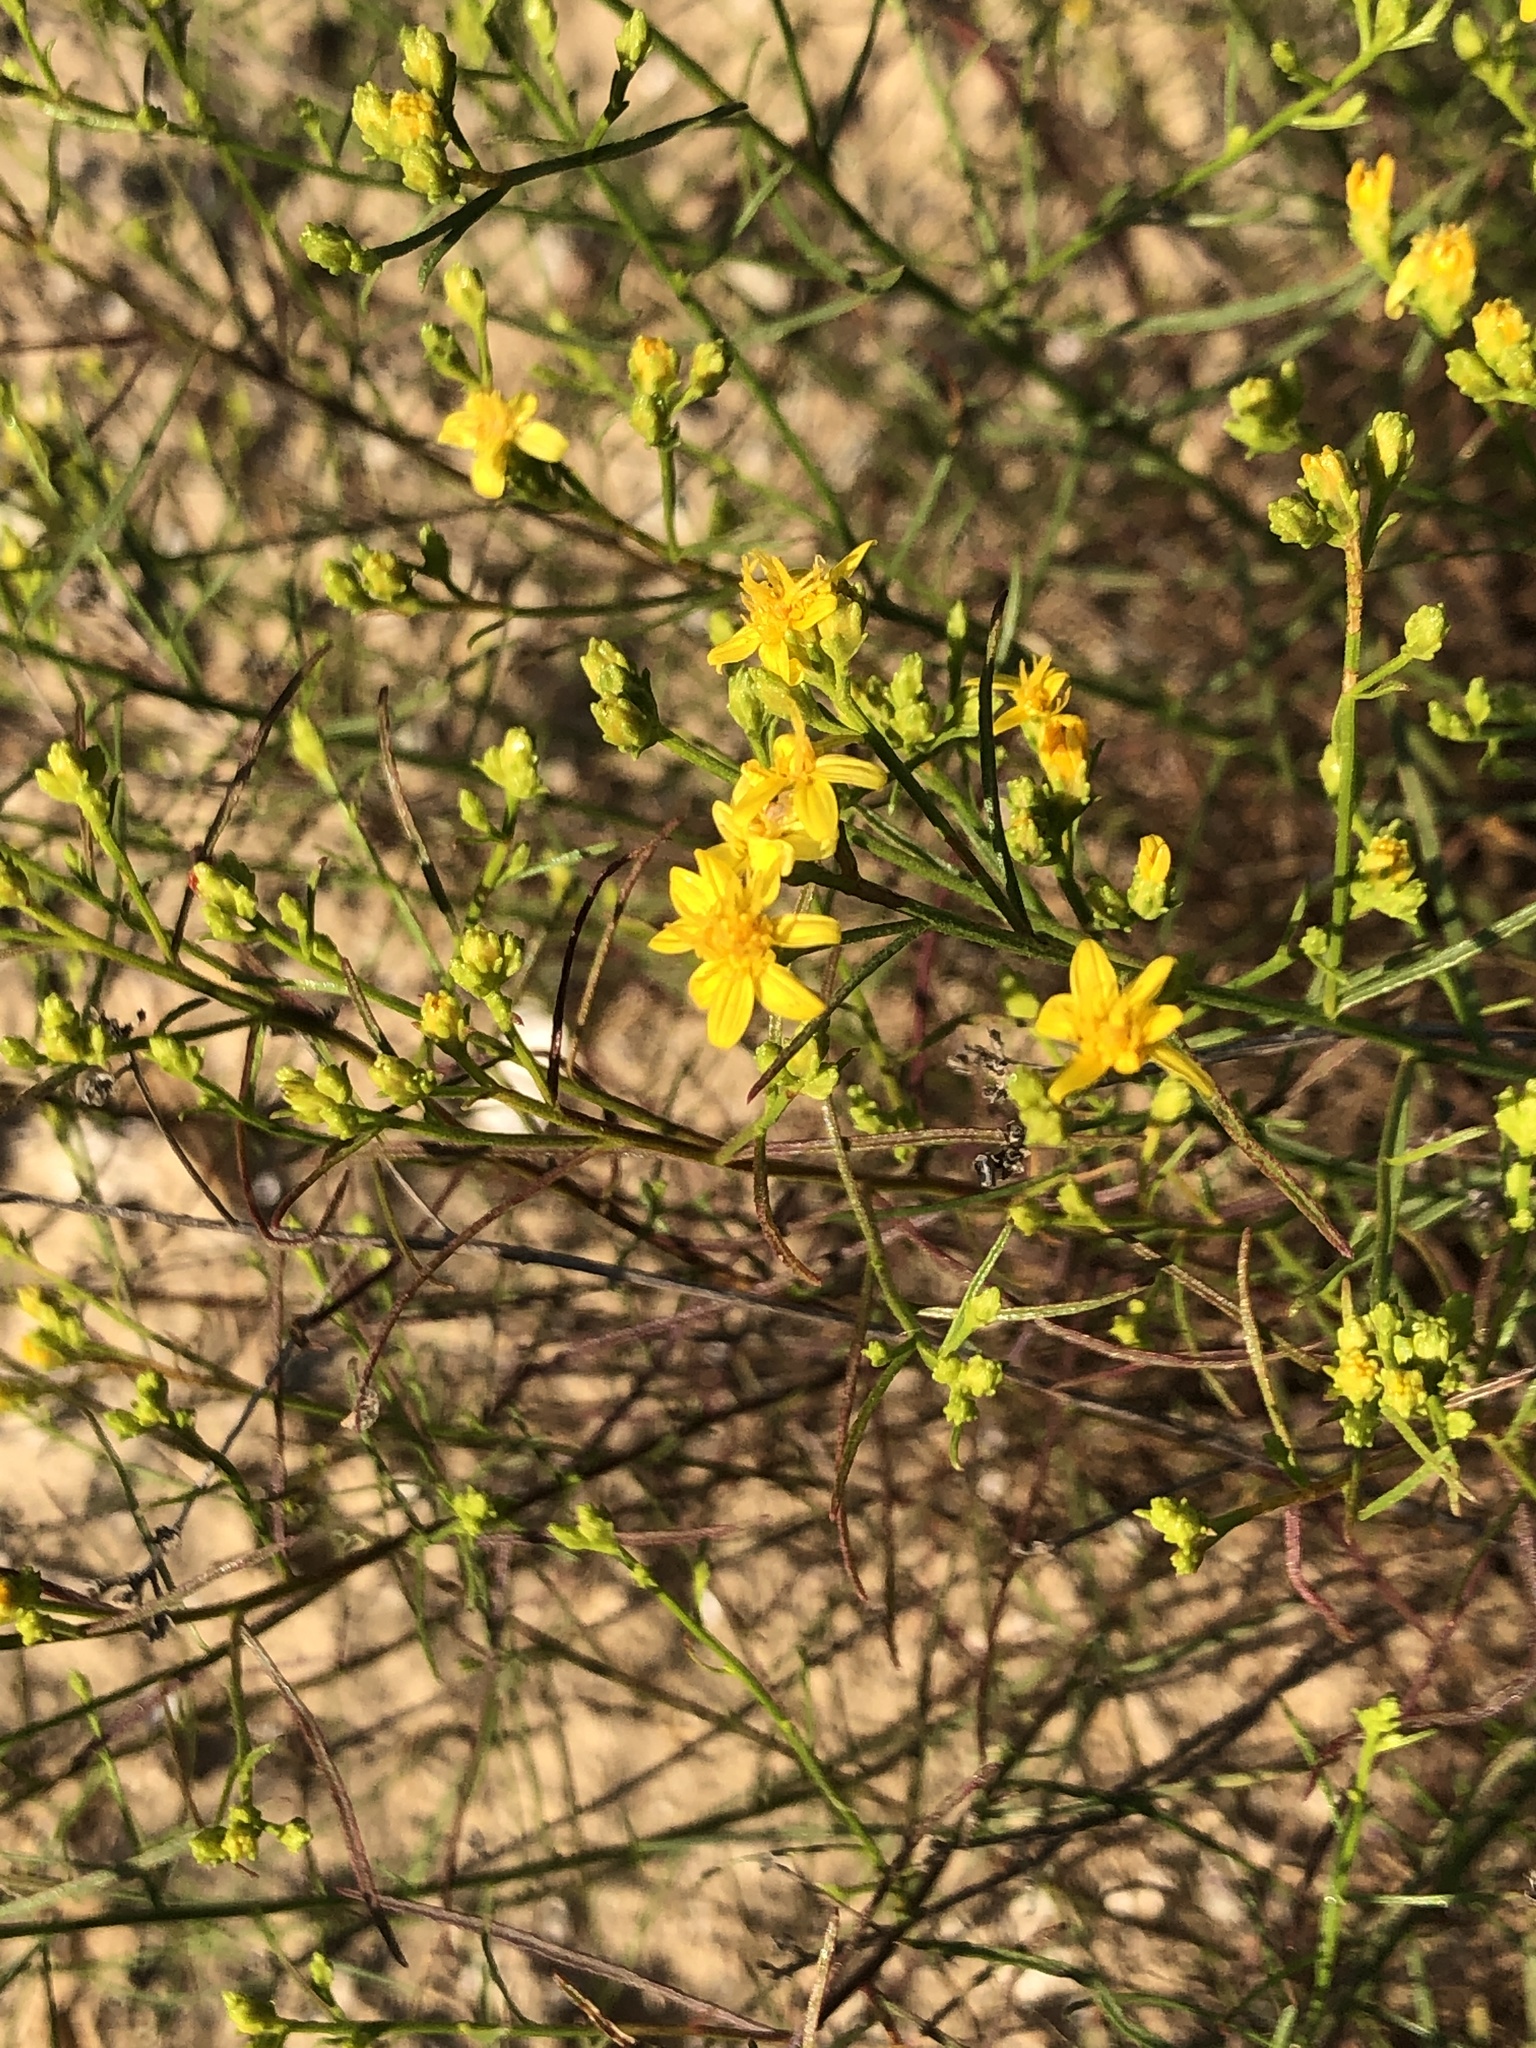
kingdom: Plantae
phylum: Tracheophyta
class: Magnoliopsida
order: Asterales
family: Asteraceae
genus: Gutierrezia
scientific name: Gutierrezia californica
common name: California matchweed
